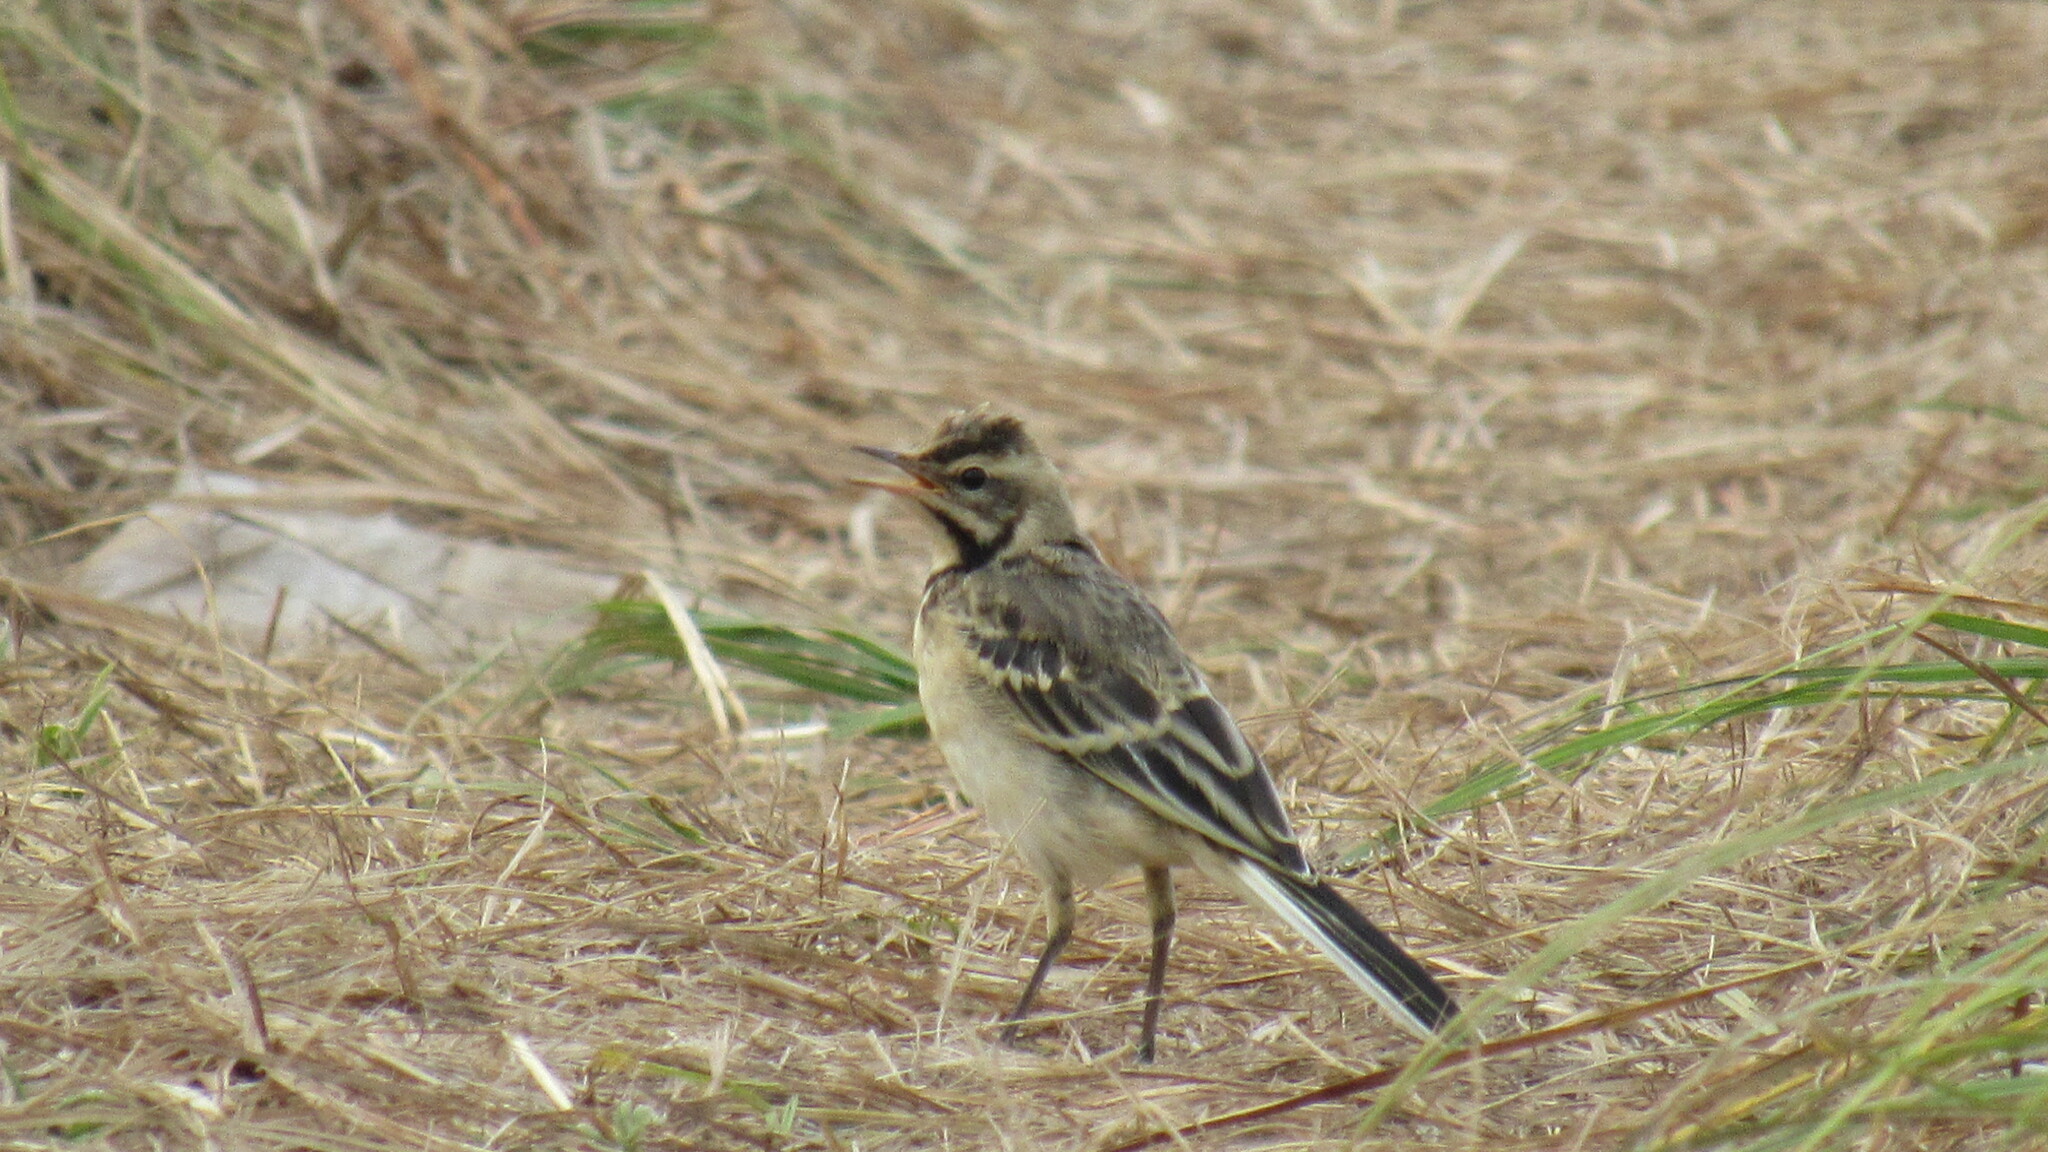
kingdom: Animalia
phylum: Chordata
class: Aves
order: Passeriformes
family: Motacillidae
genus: Motacilla
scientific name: Motacilla flava
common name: Western yellow wagtail
